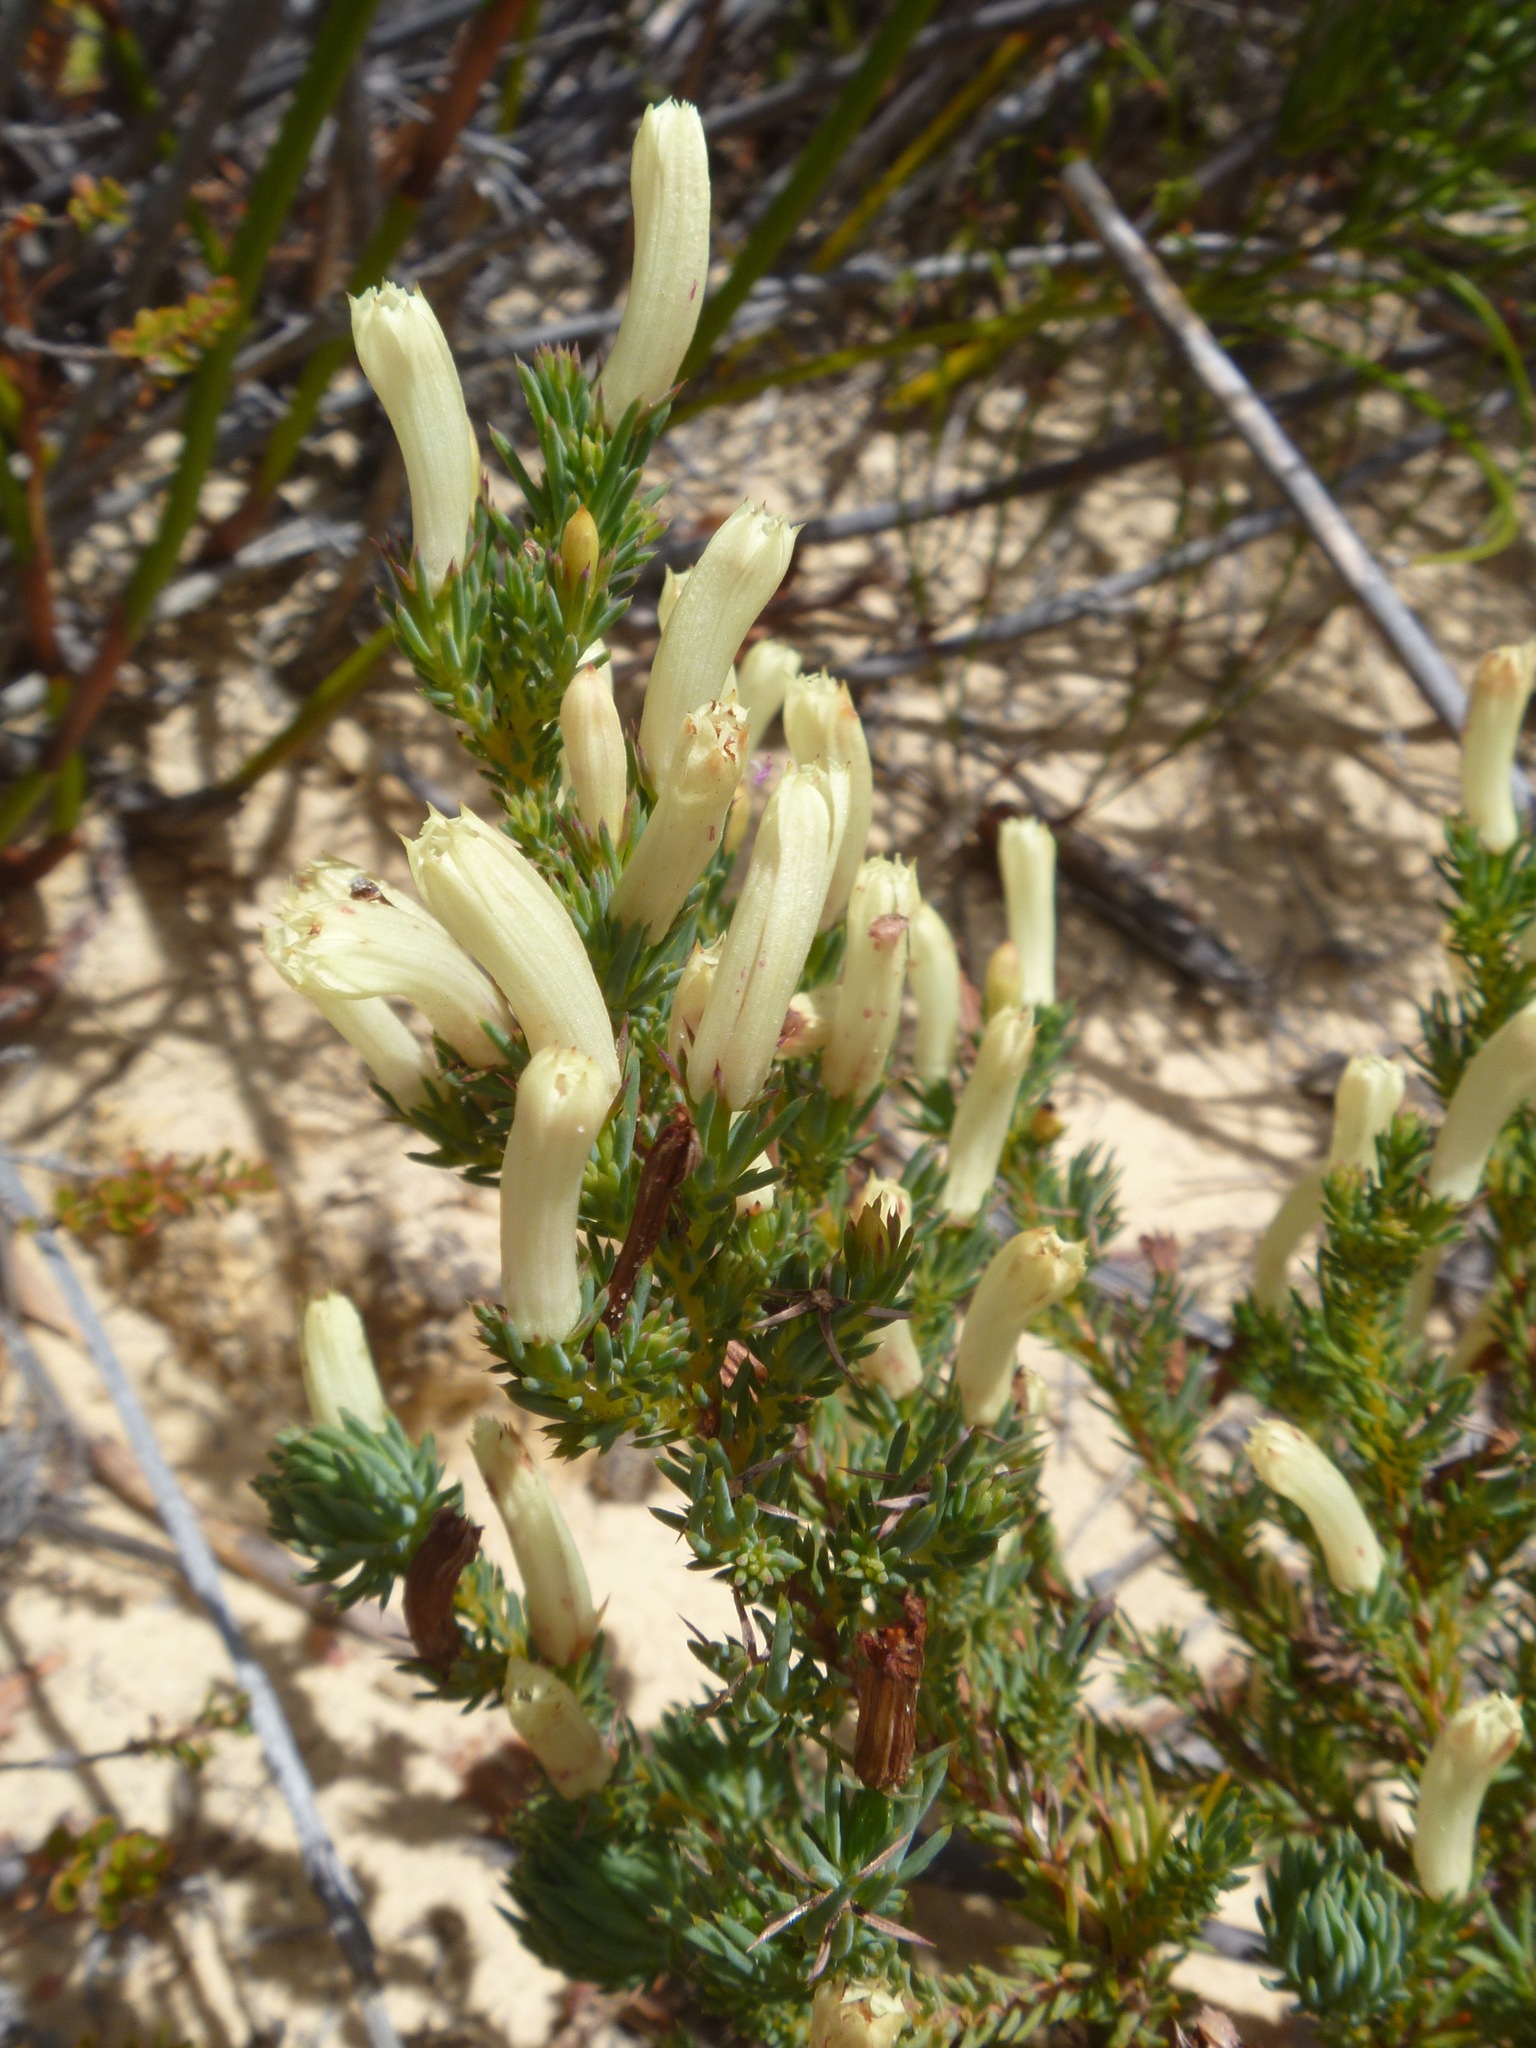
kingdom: Plantae
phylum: Tracheophyta
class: Magnoliopsida
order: Asterales
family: Goodeniaceae
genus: Lechenaultia
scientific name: Lechenaultia tubiflora
